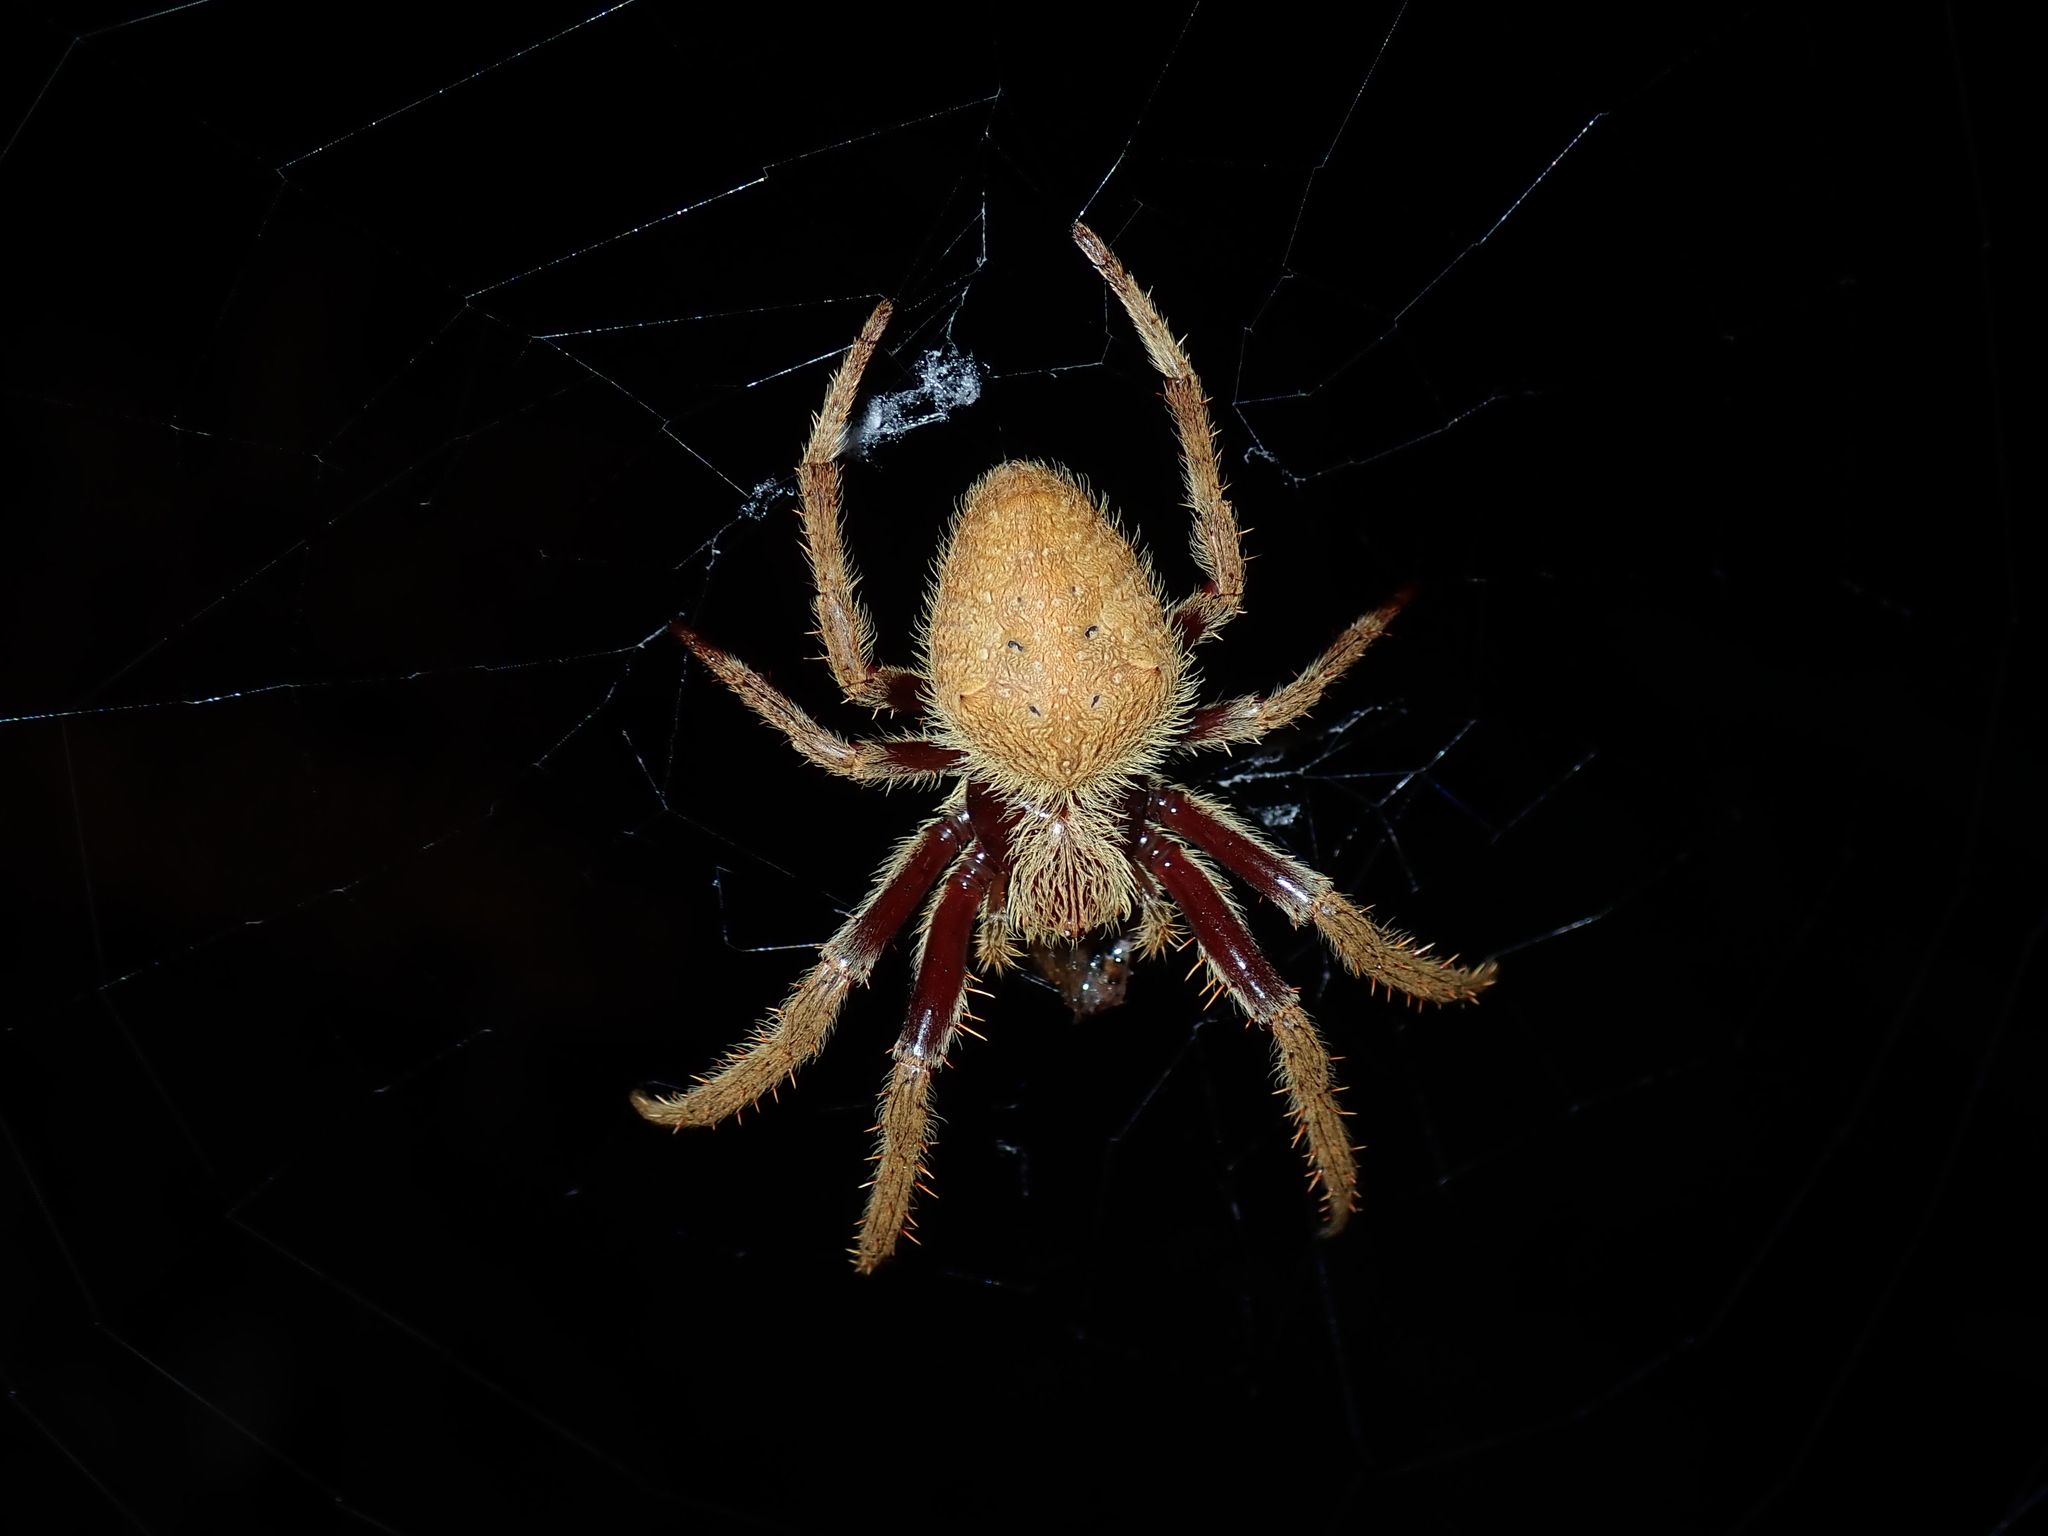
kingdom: Animalia
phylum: Arthropoda
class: Arachnida
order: Araneae
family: Araneidae
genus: Hortophora
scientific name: Hortophora transmarina
